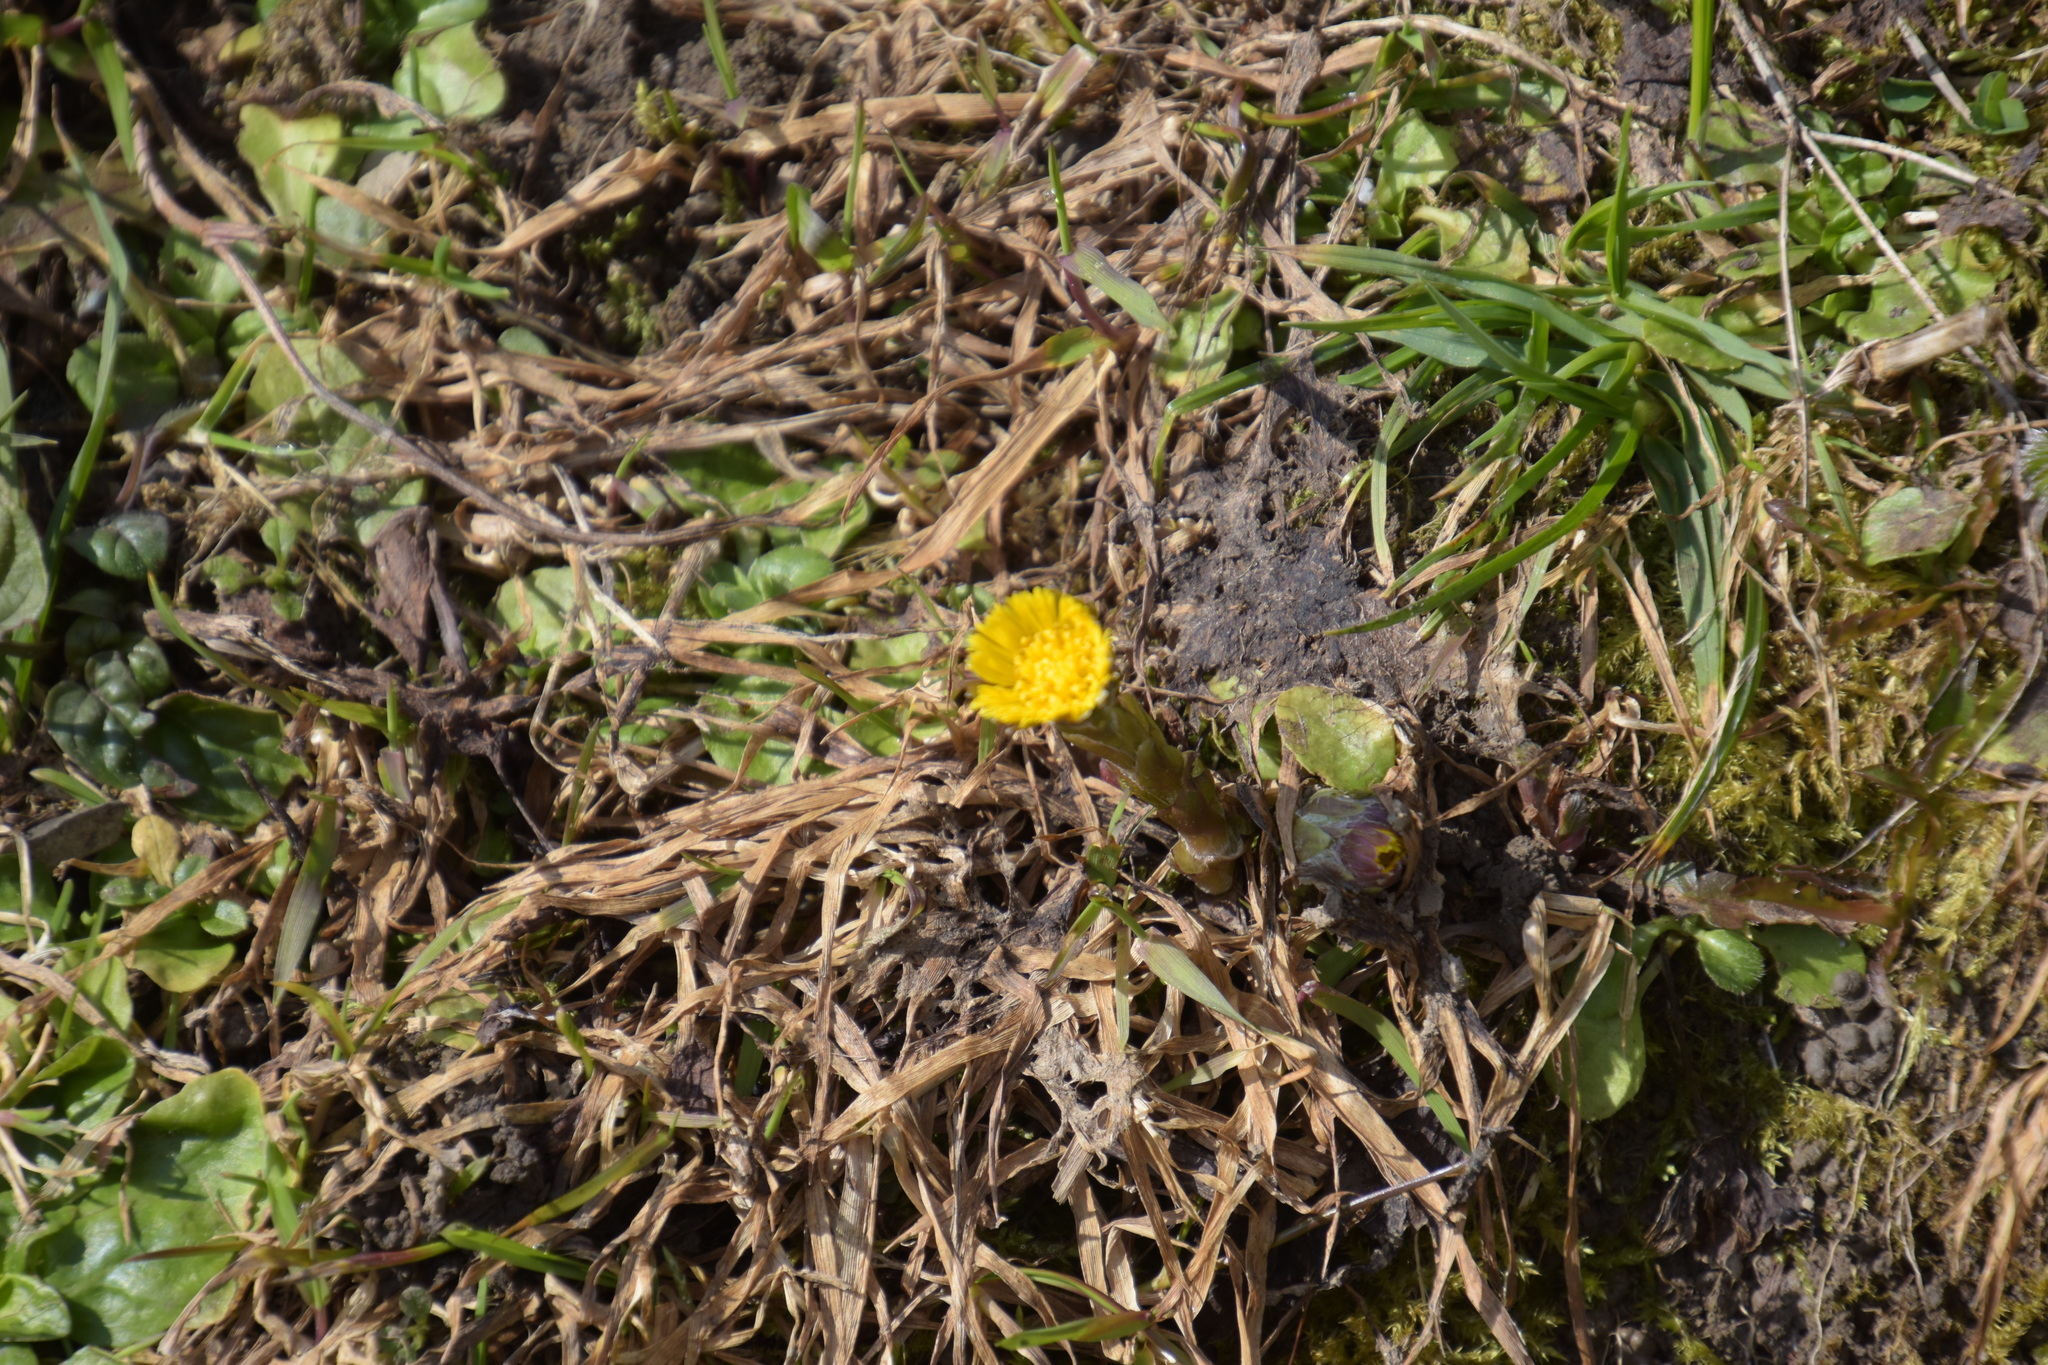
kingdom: Plantae
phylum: Tracheophyta
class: Magnoliopsida
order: Asterales
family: Asteraceae
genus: Tussilago
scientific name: Tussilago farfara
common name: Coltsfoot
